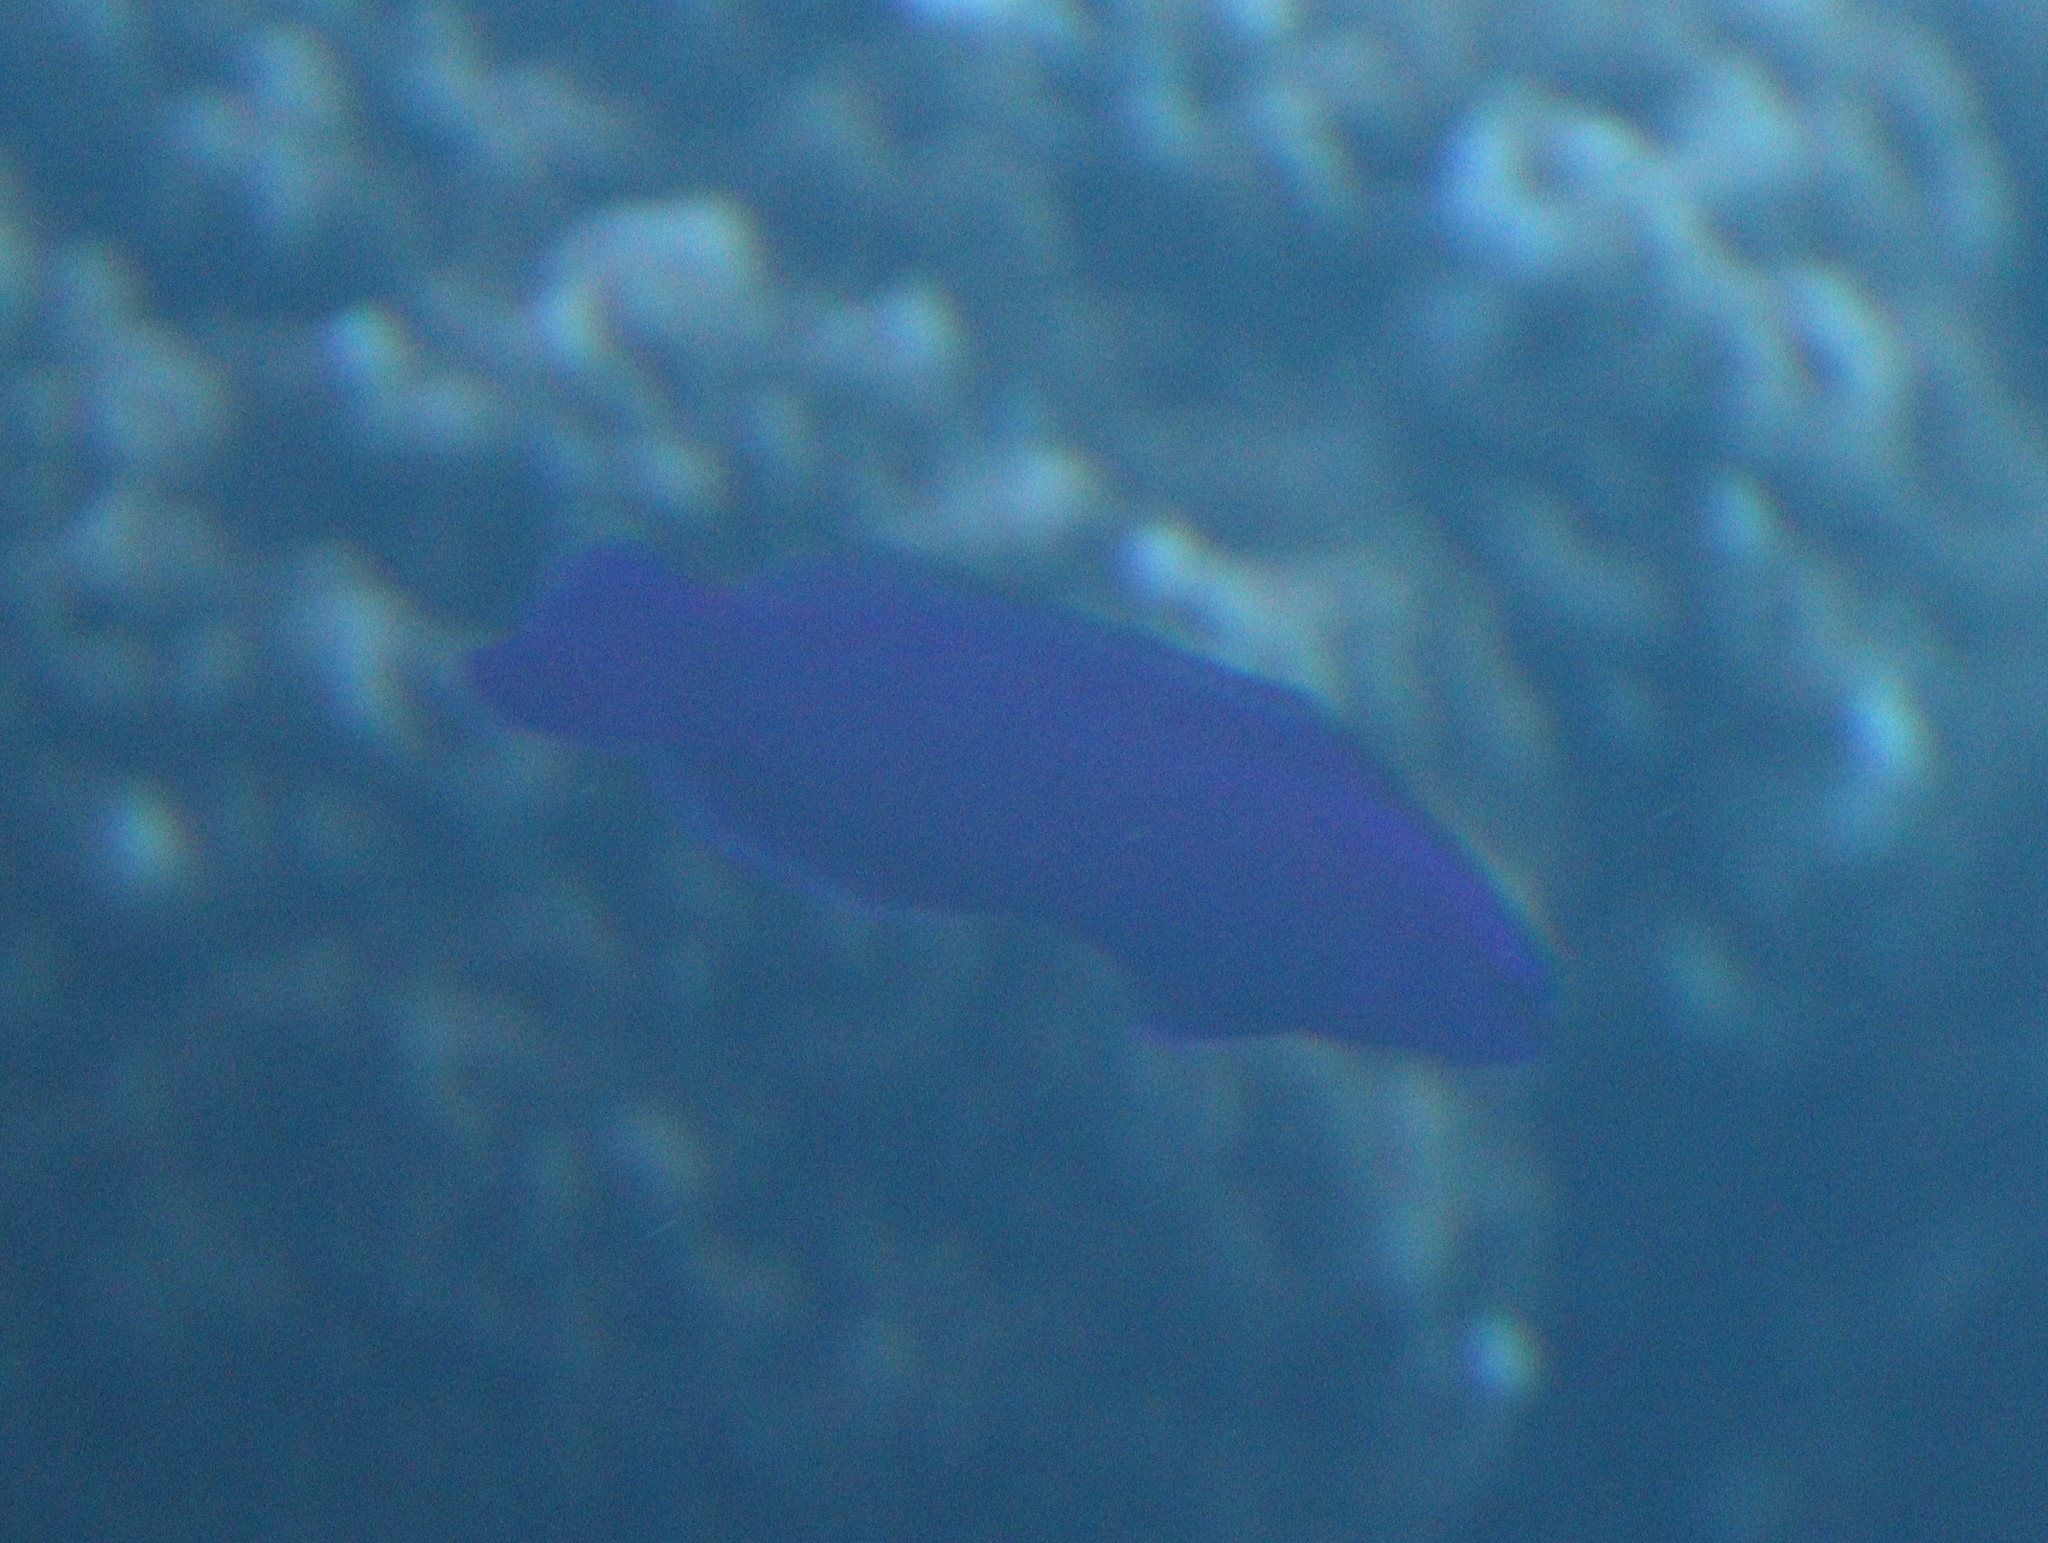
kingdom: Animalia
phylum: Chordata
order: Perciformes
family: Pseudochromidae
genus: Pseudochromis
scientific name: Pseudochromis fridmani
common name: Orchid dottyback
